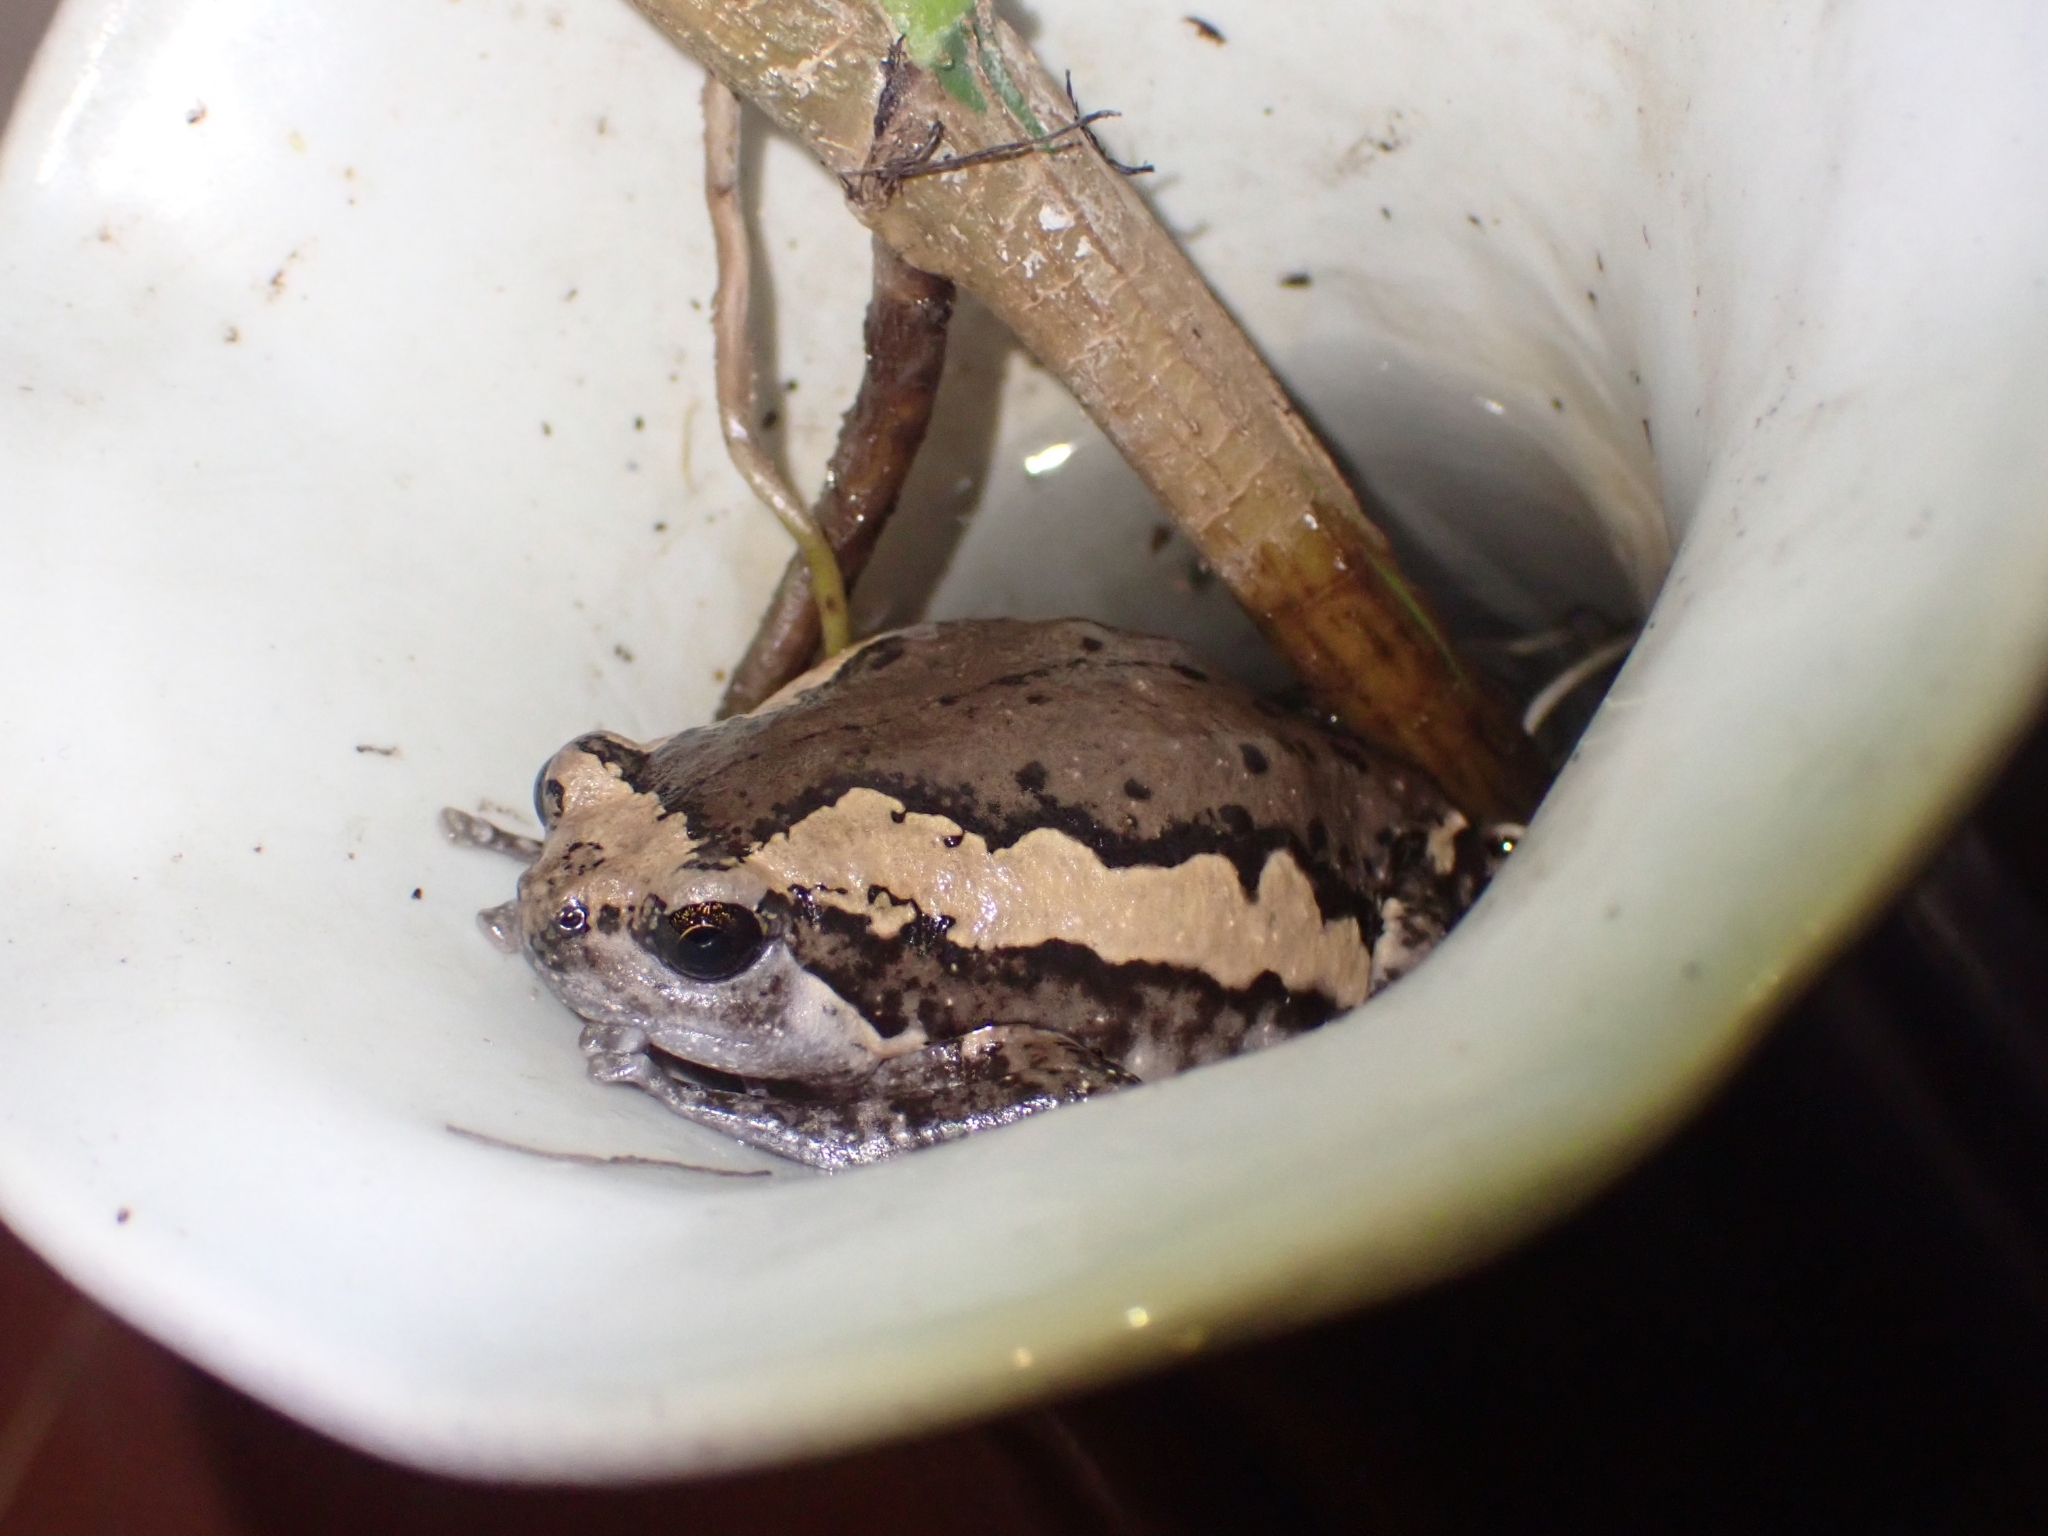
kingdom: Animalia
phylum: Chordata
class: Amphibia
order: Anura
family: Microhylidae
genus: Kaloula
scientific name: Kaloula pulchra
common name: Common,banded bullfrog
